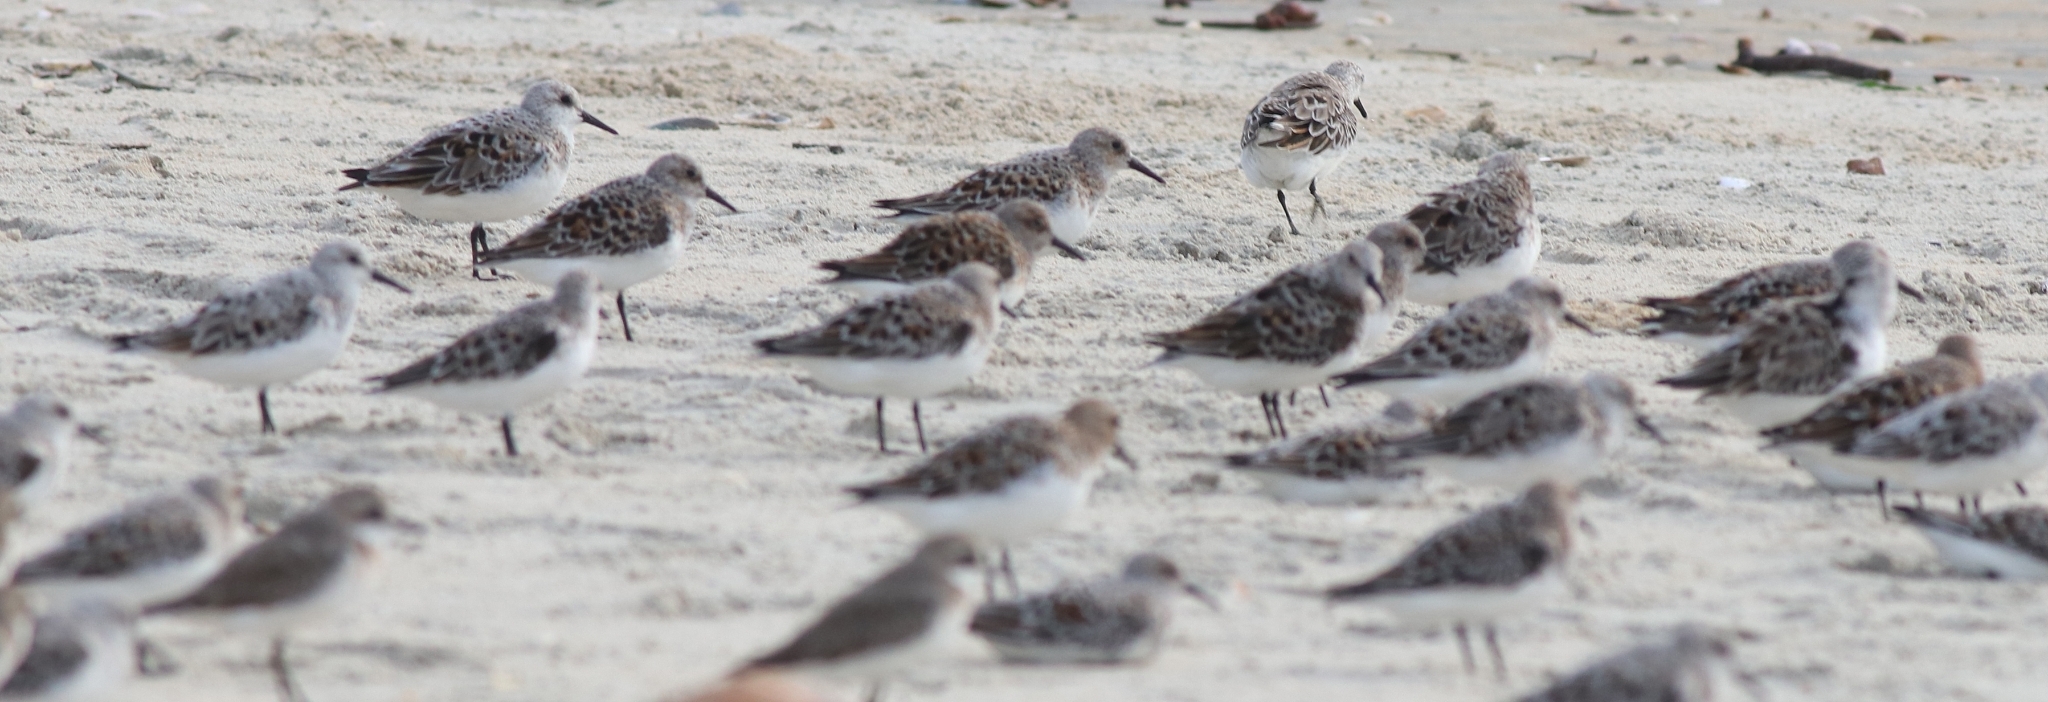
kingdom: Animalia
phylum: Chordata
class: Aves
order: Charadriiformes
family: Scolopacidae
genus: Calidris
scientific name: Calidris alba
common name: Sanderling
